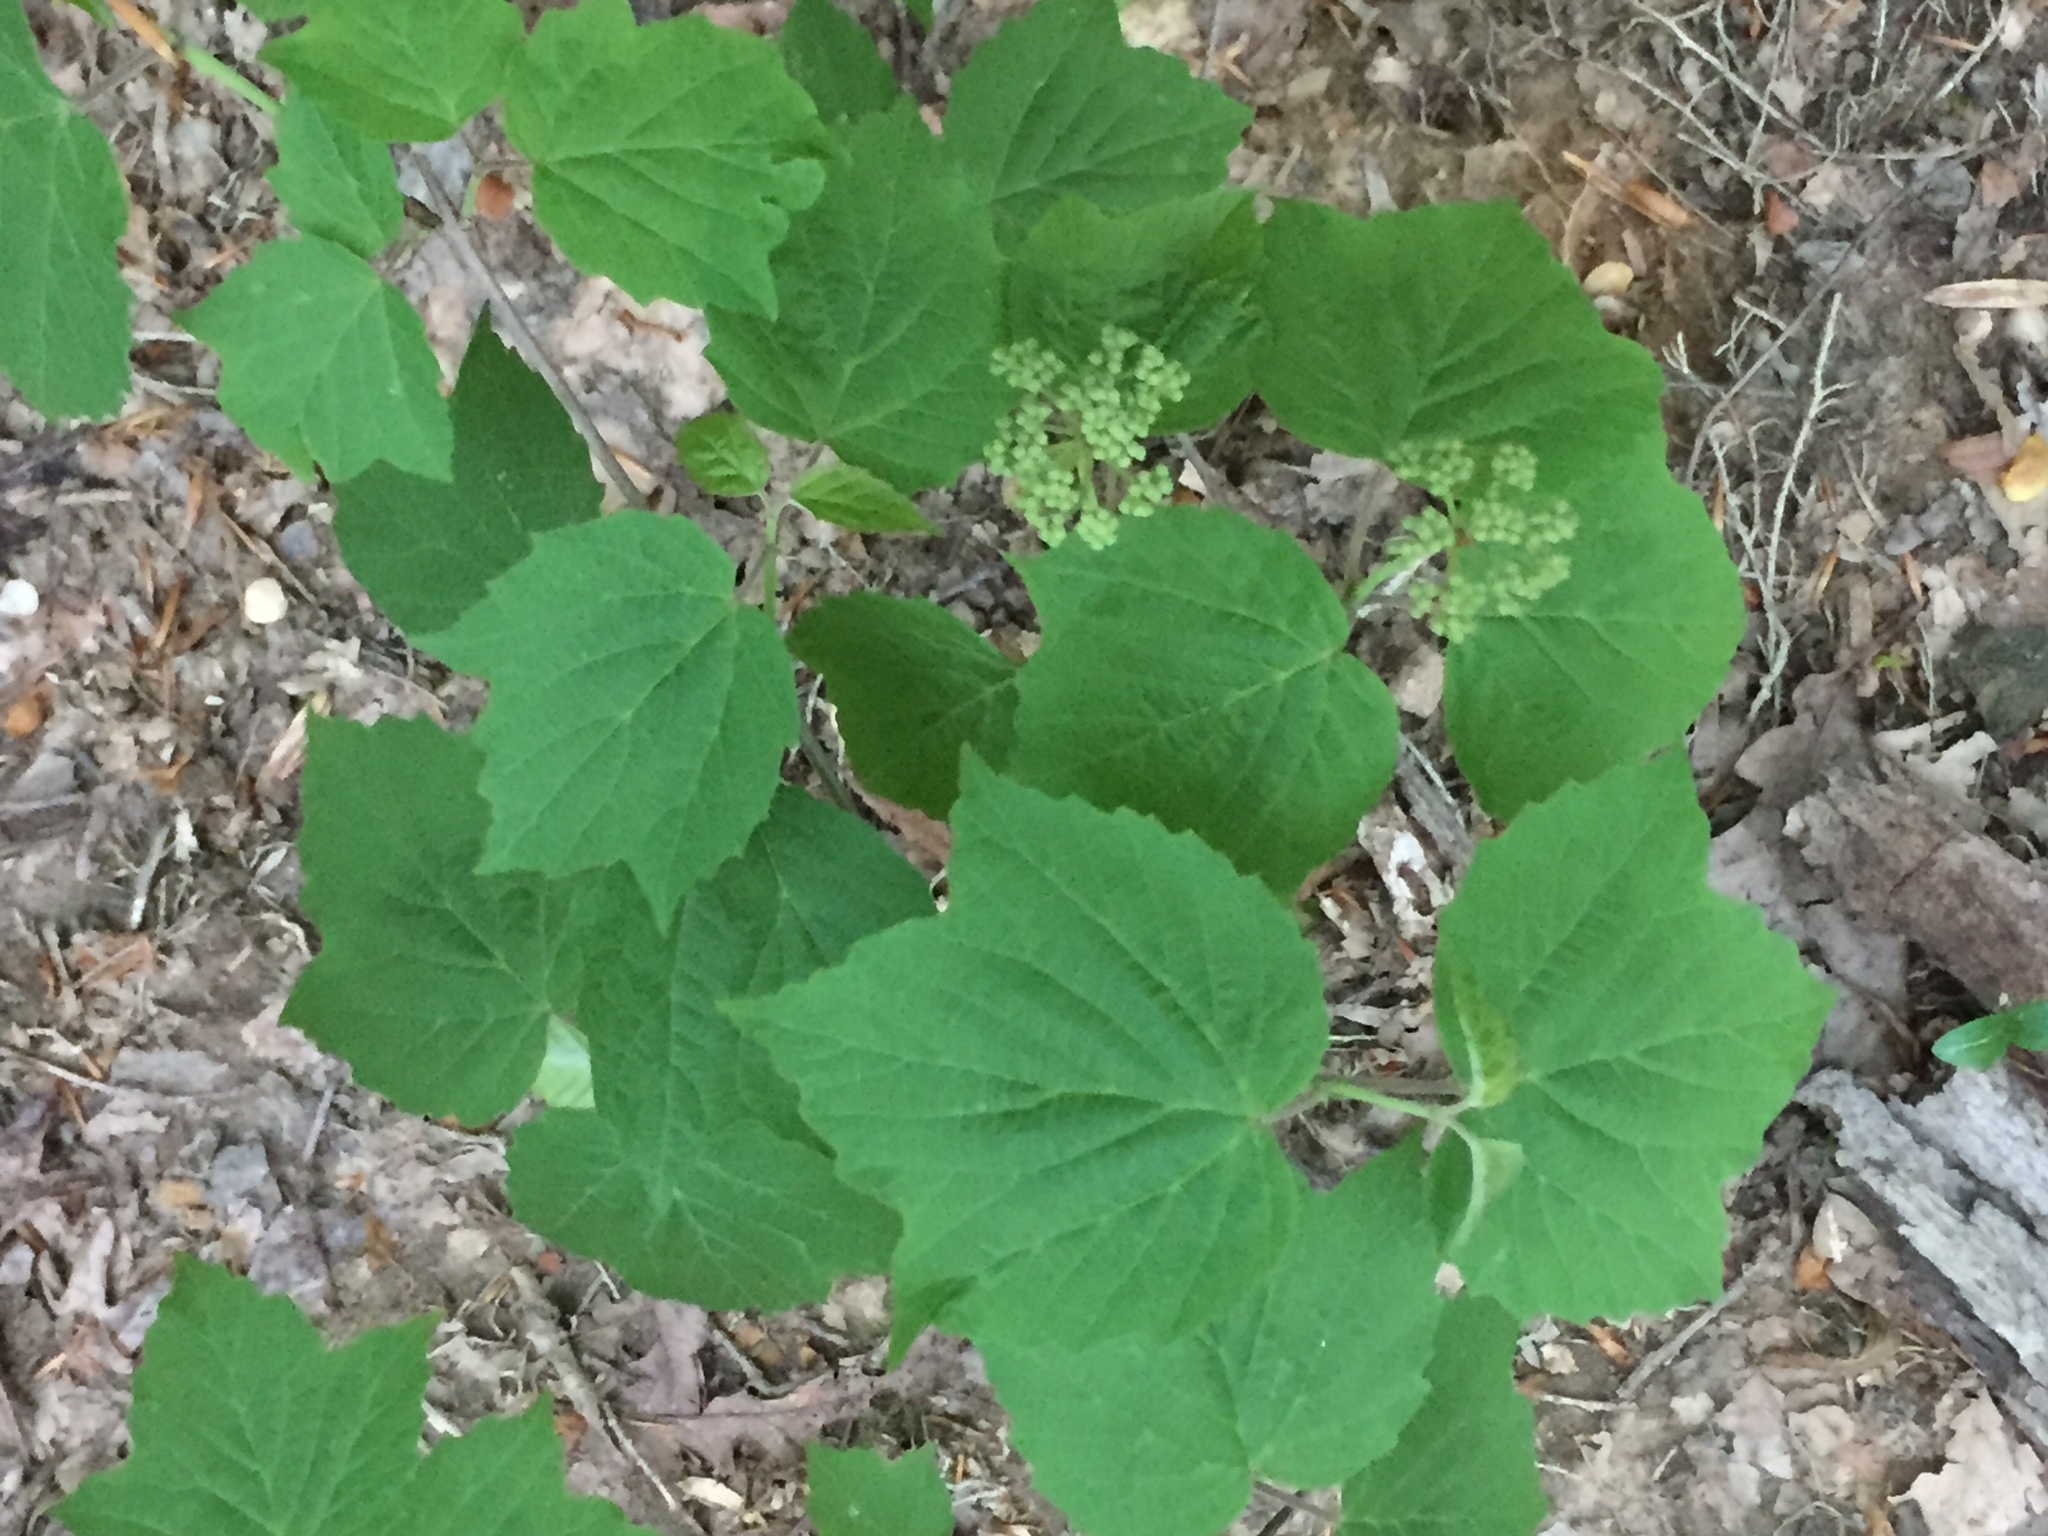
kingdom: Plantae
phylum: Tracheophyta
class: Magnoliopsida
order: Dipsacales
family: Viburnaceae
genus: Viburnum
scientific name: Viburnum acerifolium
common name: Dockmackie
